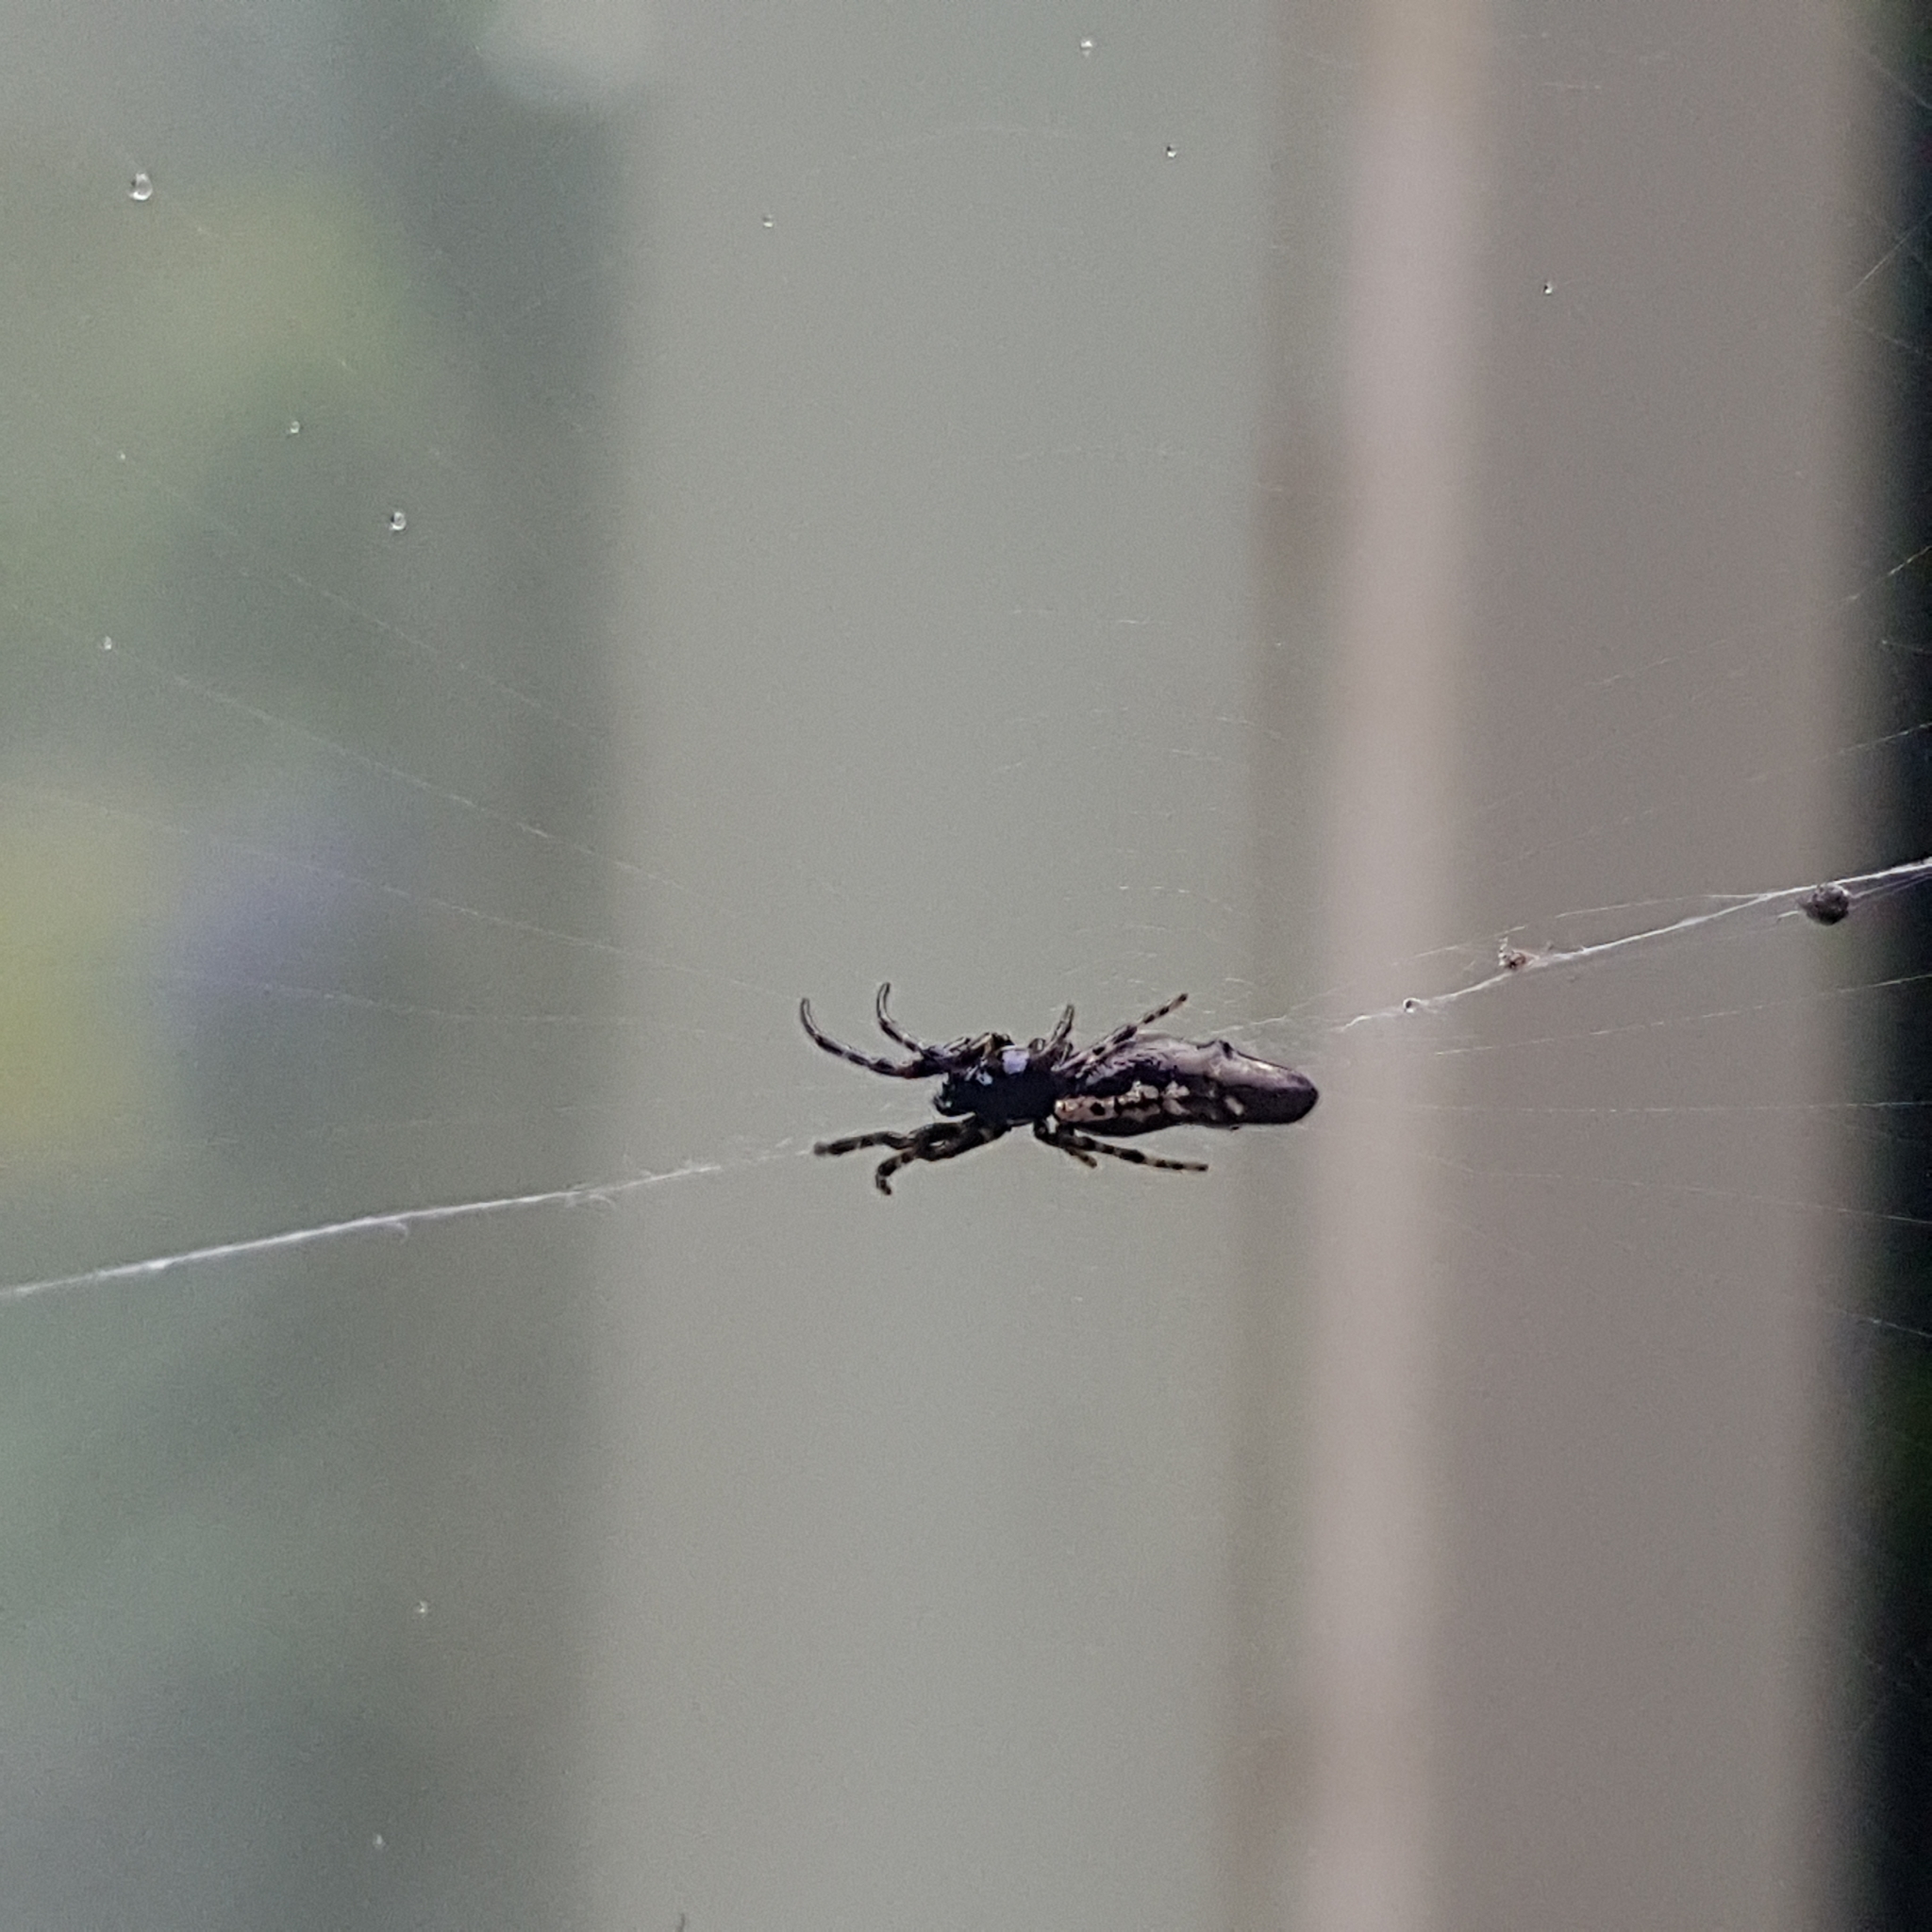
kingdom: Animalia
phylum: Arthropoda
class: Arachnida
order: Araneae
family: Araneidae
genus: Cyclosa
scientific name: Cyclosa trilobata
